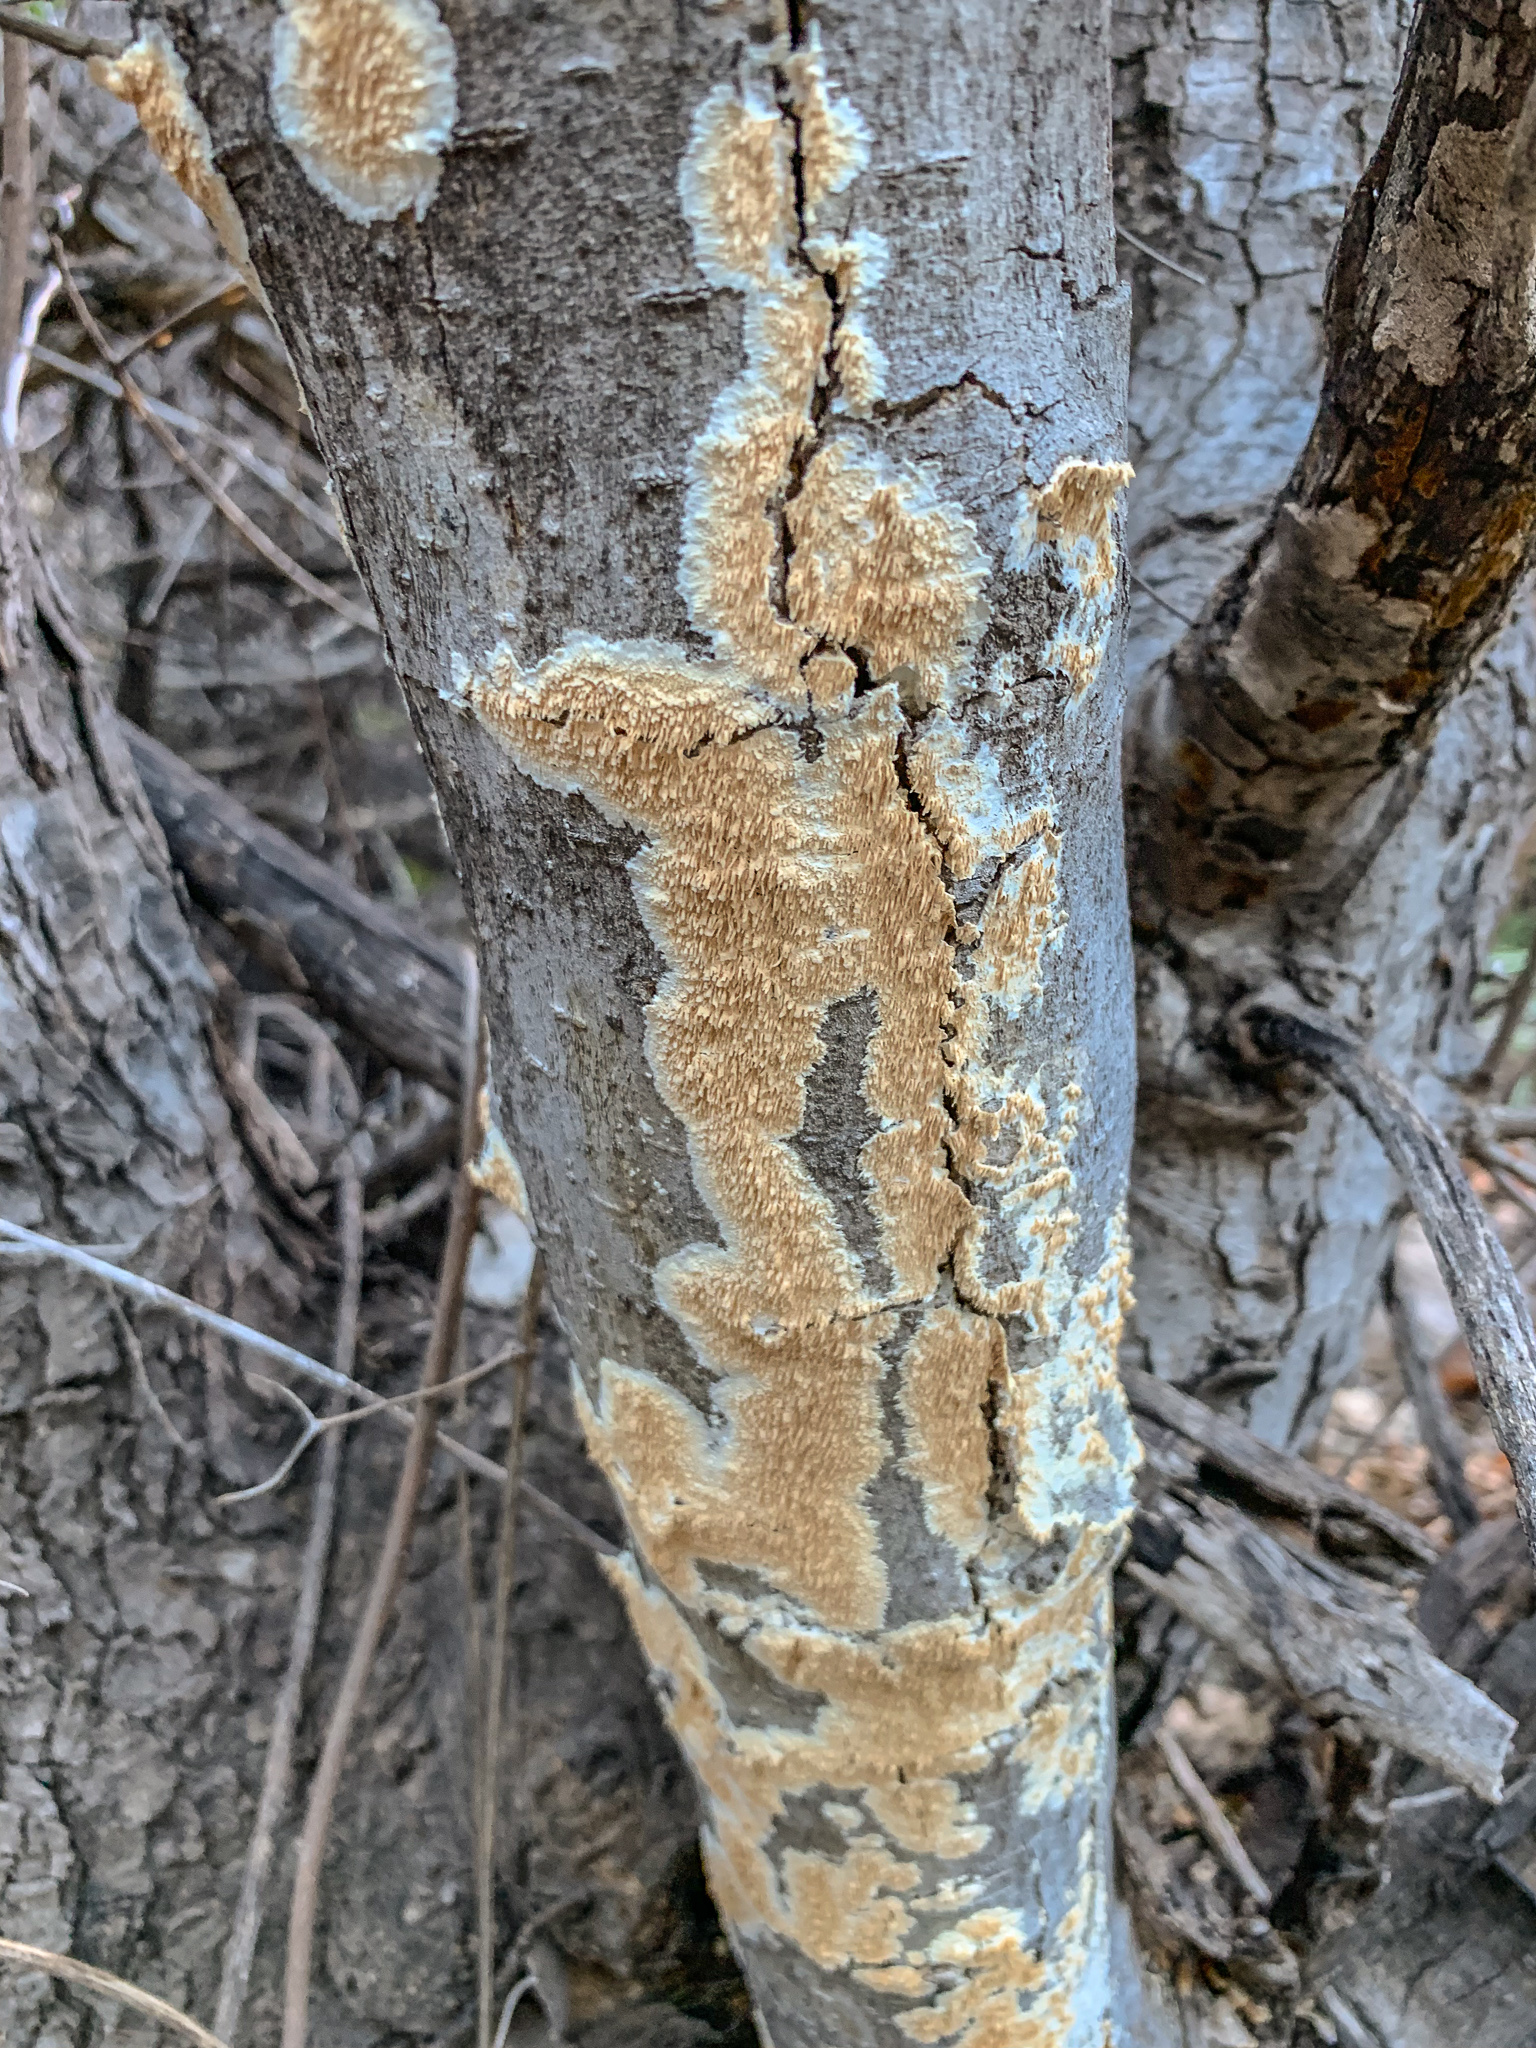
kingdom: Fungi
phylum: Basidiomycota
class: Agaricomycetes
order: Polyporales
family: Irpicaceae
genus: Irpex
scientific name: Irpex lacteus
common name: Milk-white toothed polypore
